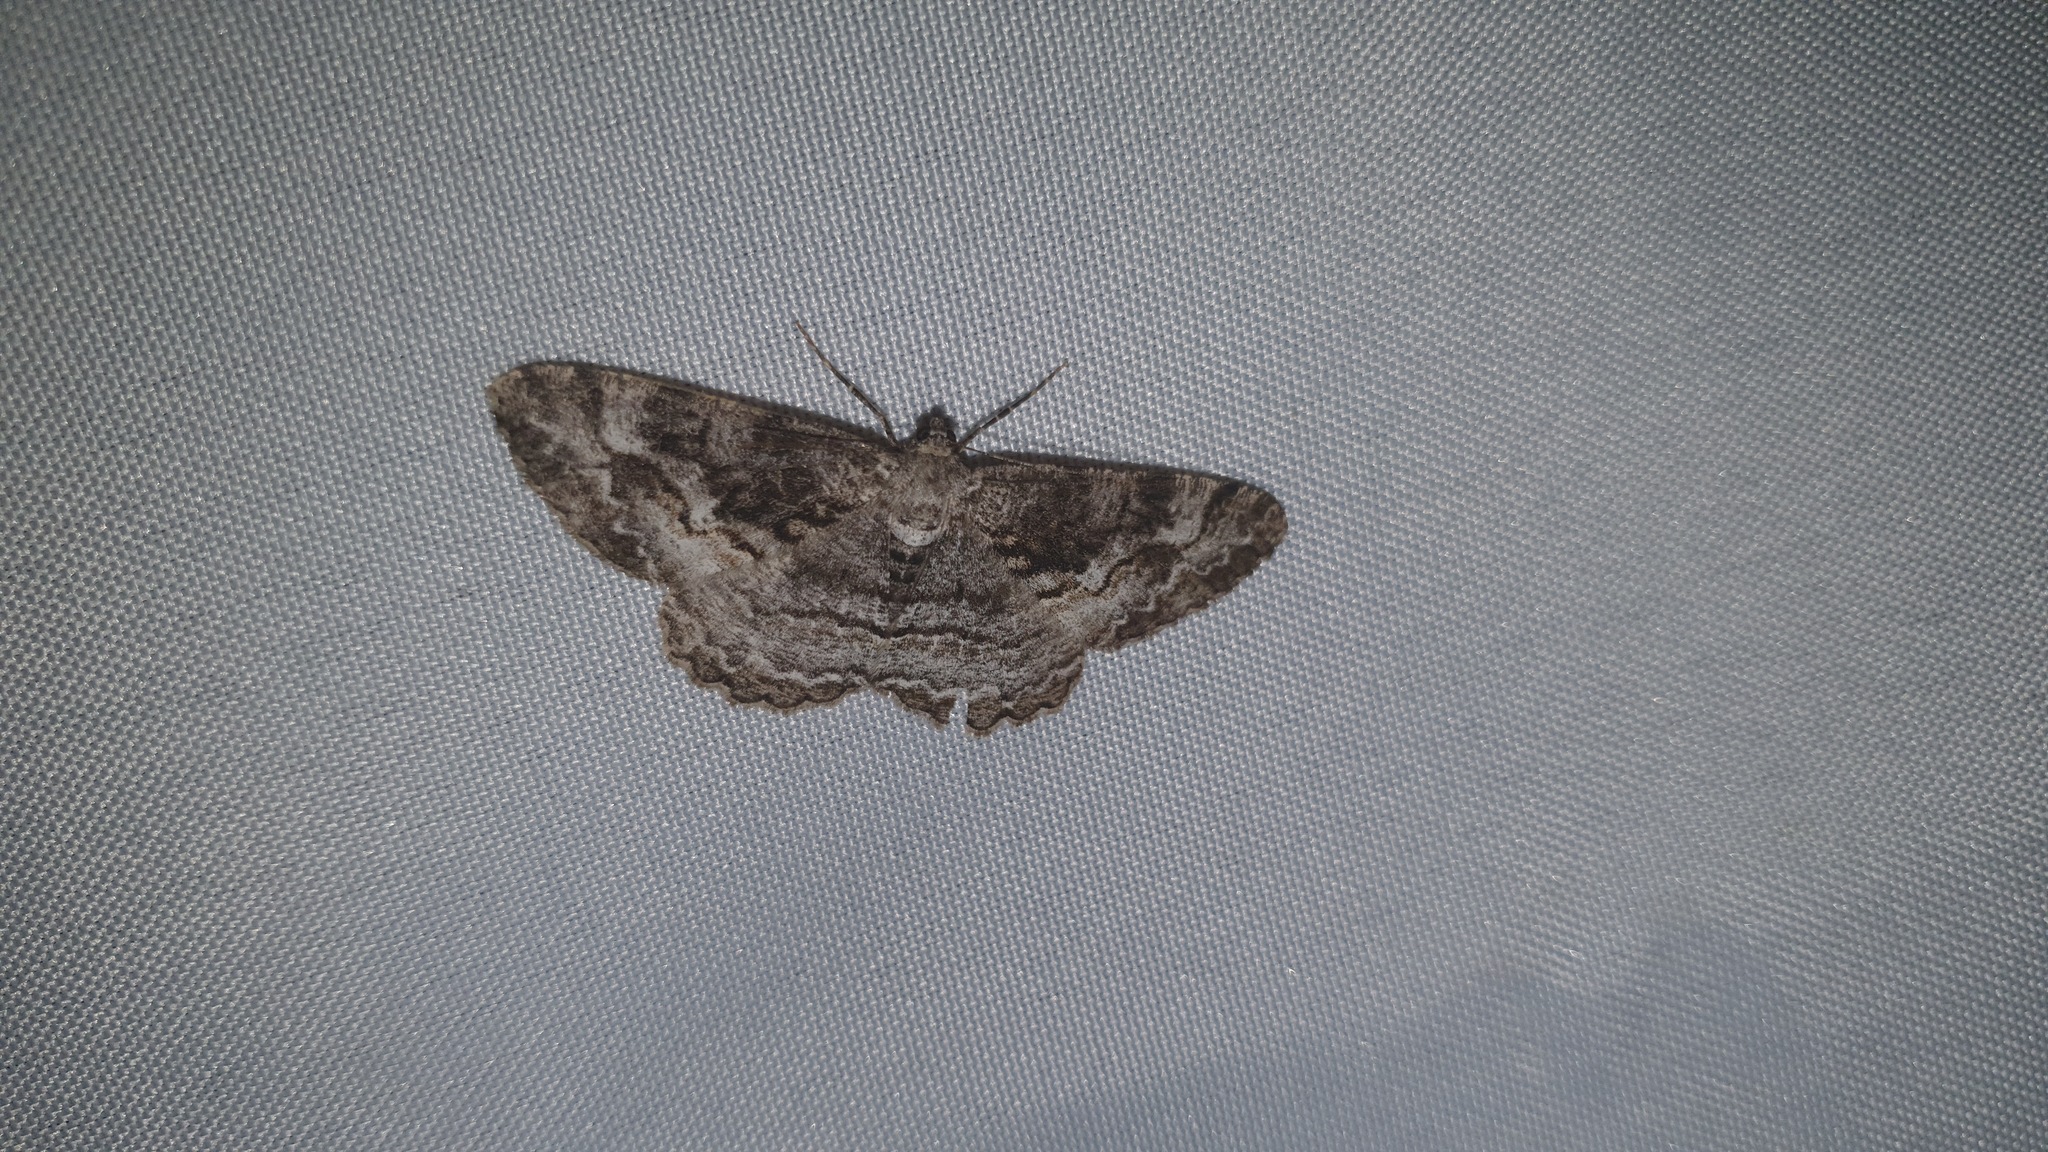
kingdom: Animalia
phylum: Arthropoda
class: Insecta
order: Lepidoptera
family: Geometridae
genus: Alcis
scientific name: Alcis repandata
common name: Mottled beauty
